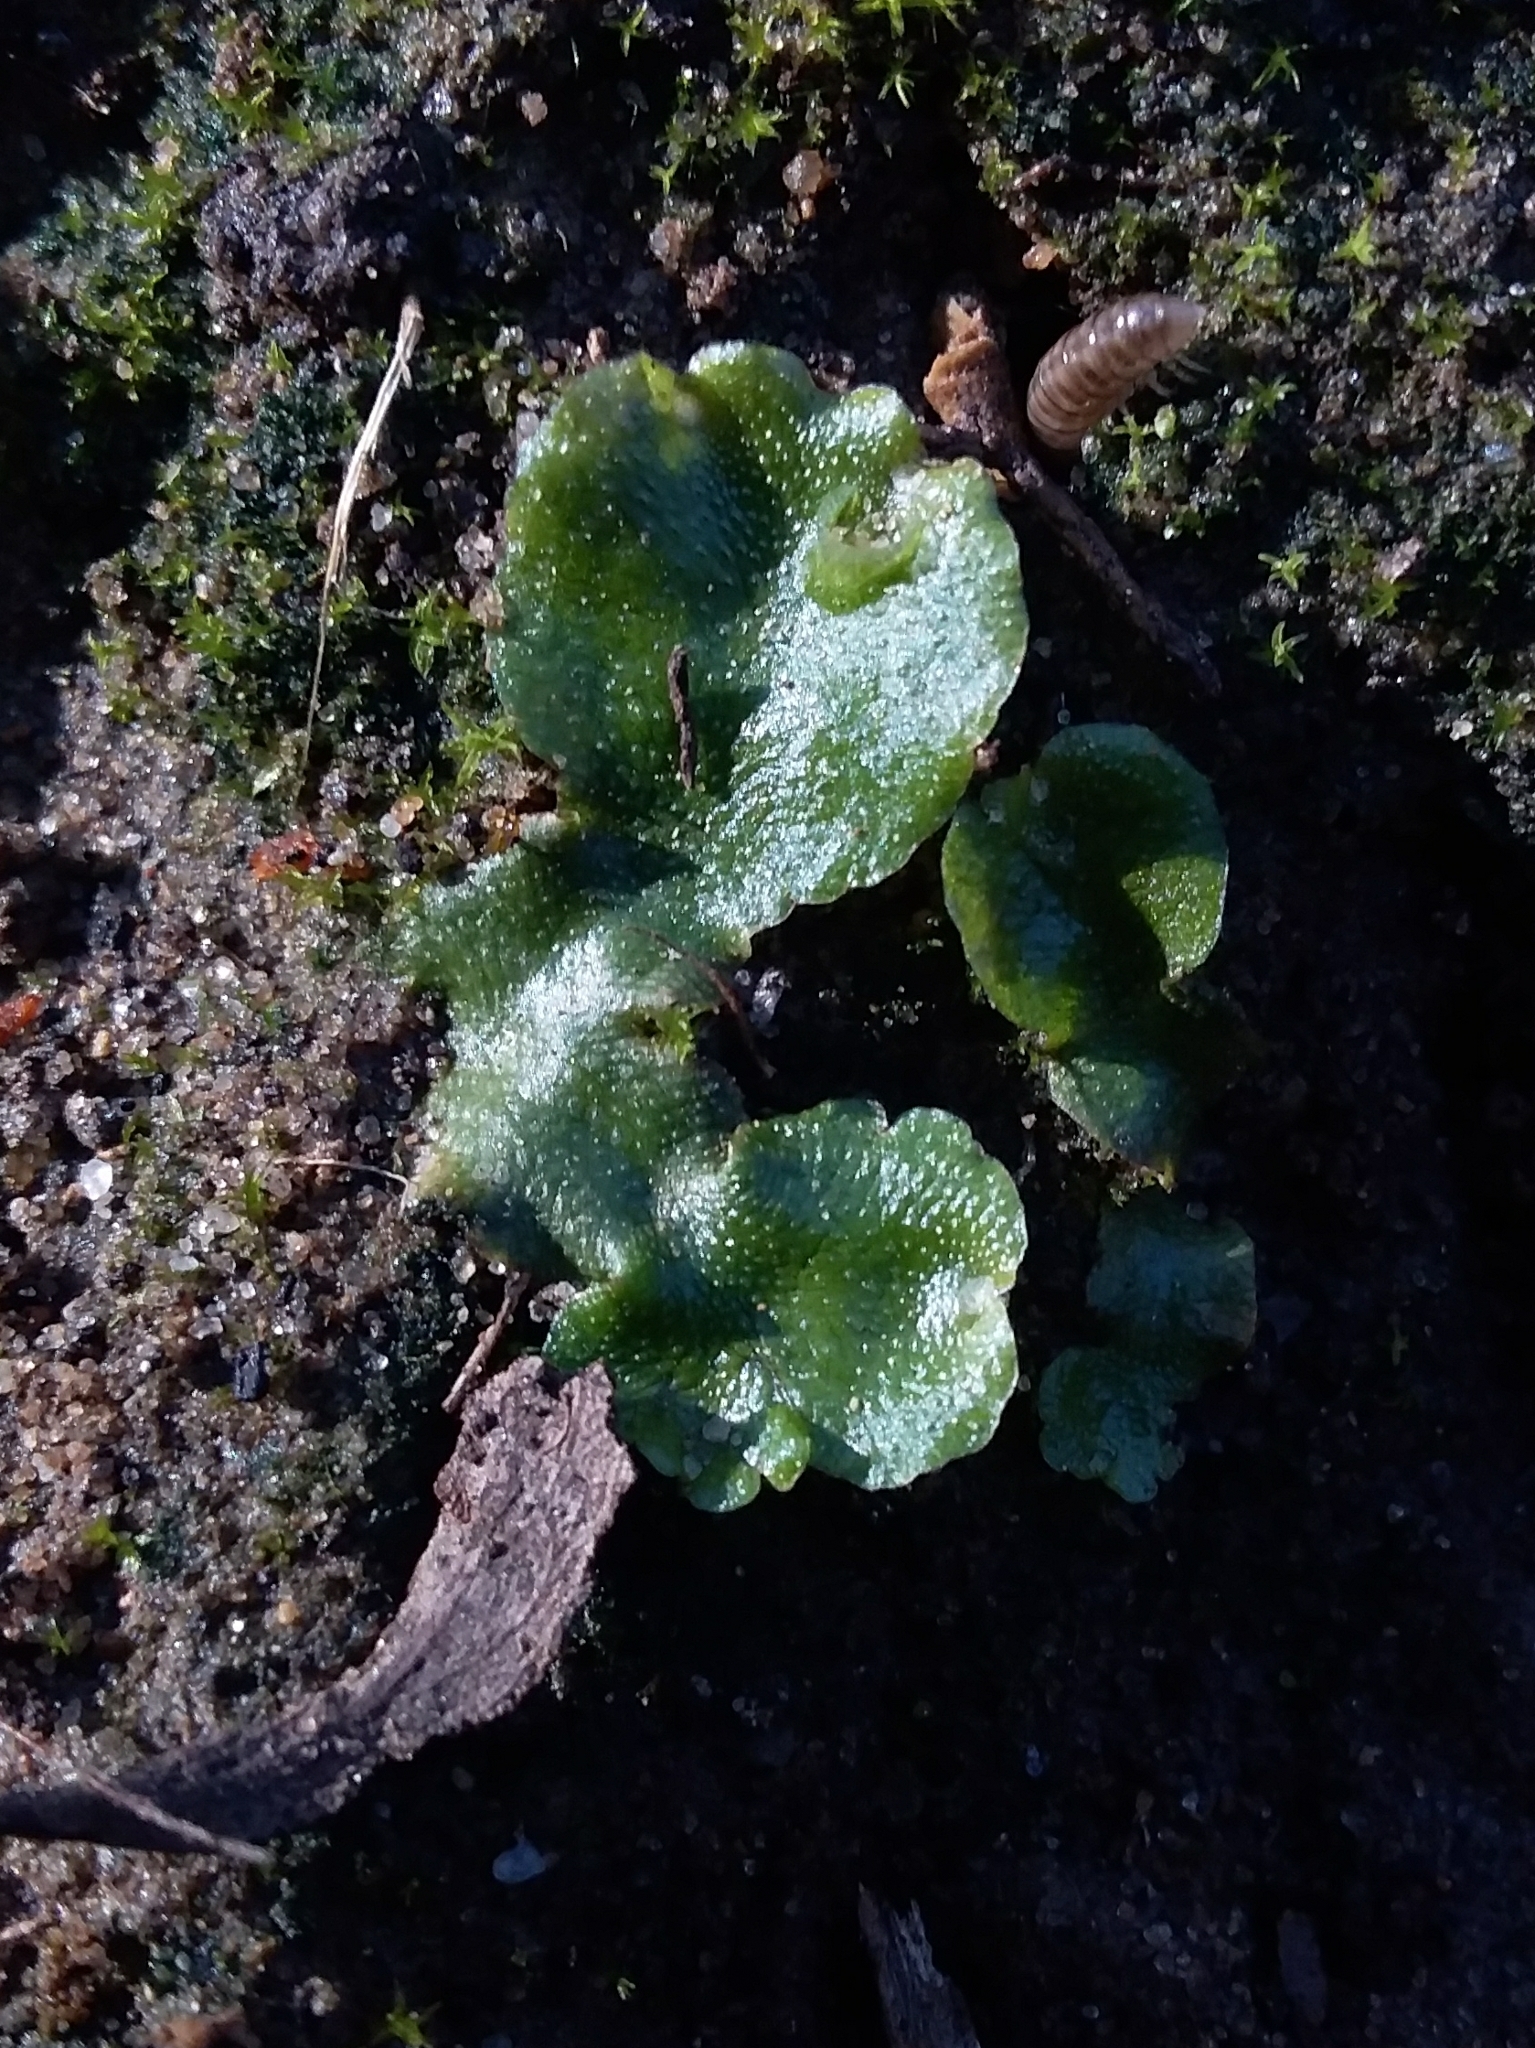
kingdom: Plantae
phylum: Marchantiophyta
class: Marchantiopsida
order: Lunulariales
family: Lunulariaceae
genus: Lunularia
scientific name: Lunularia cruciata
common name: Crescent-cup liverwort
